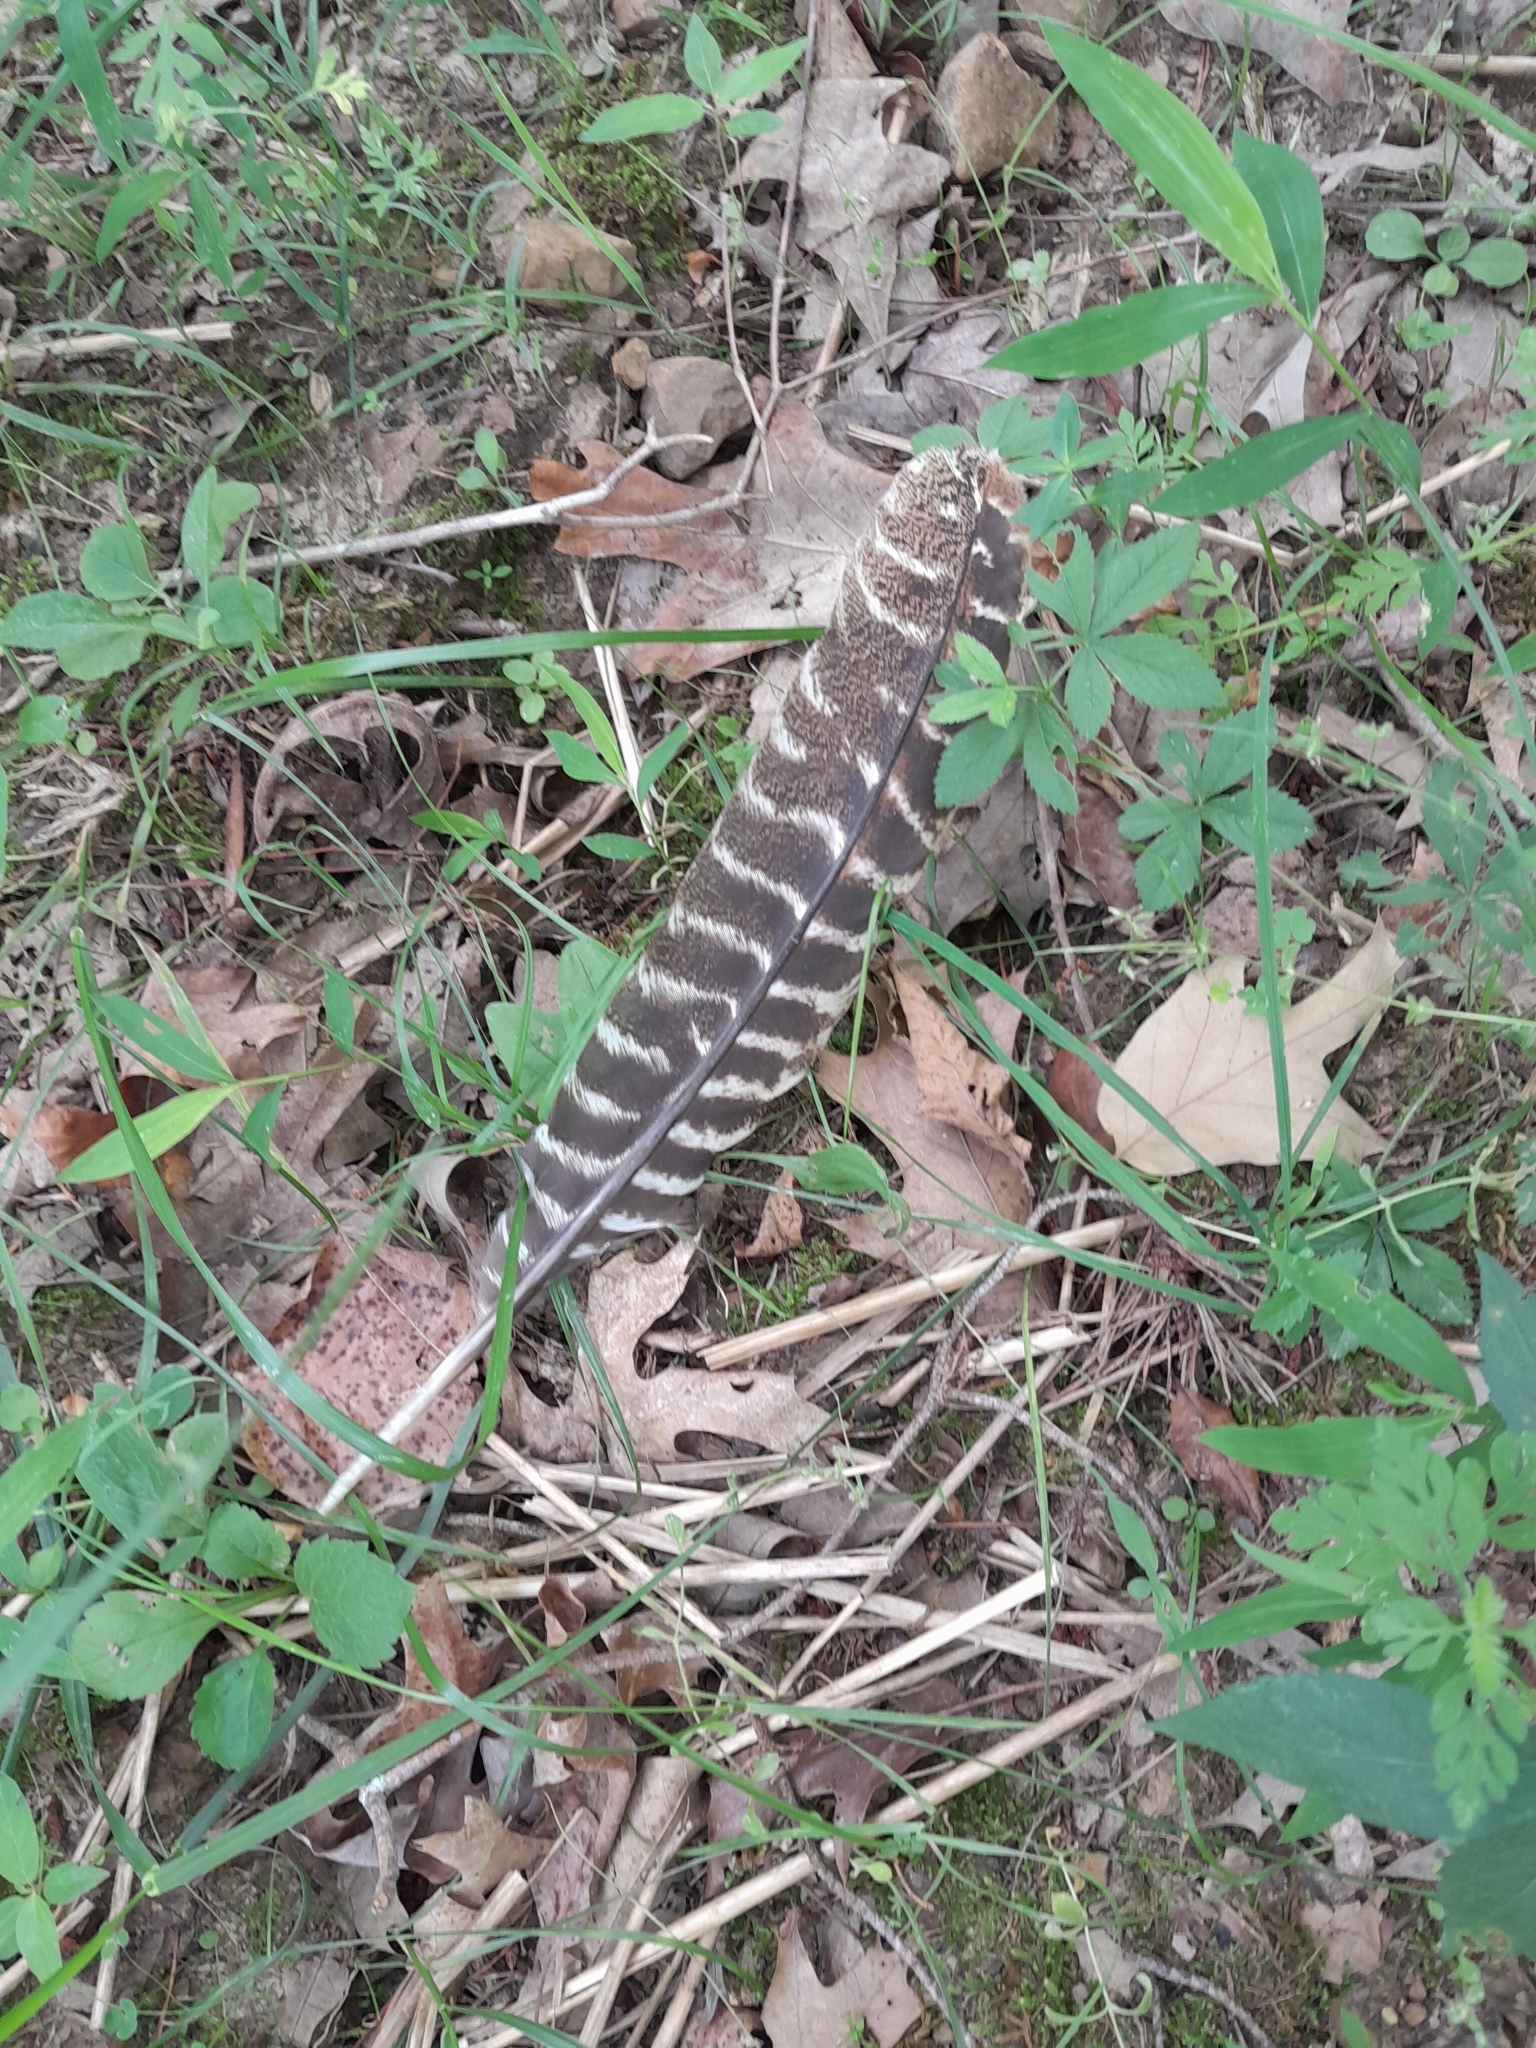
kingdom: Animalia
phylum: Chordata
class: Aves
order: Galliformes
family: Phasianidae
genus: Meleagris
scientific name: Meleagris gallopavo
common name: Wild turkey
